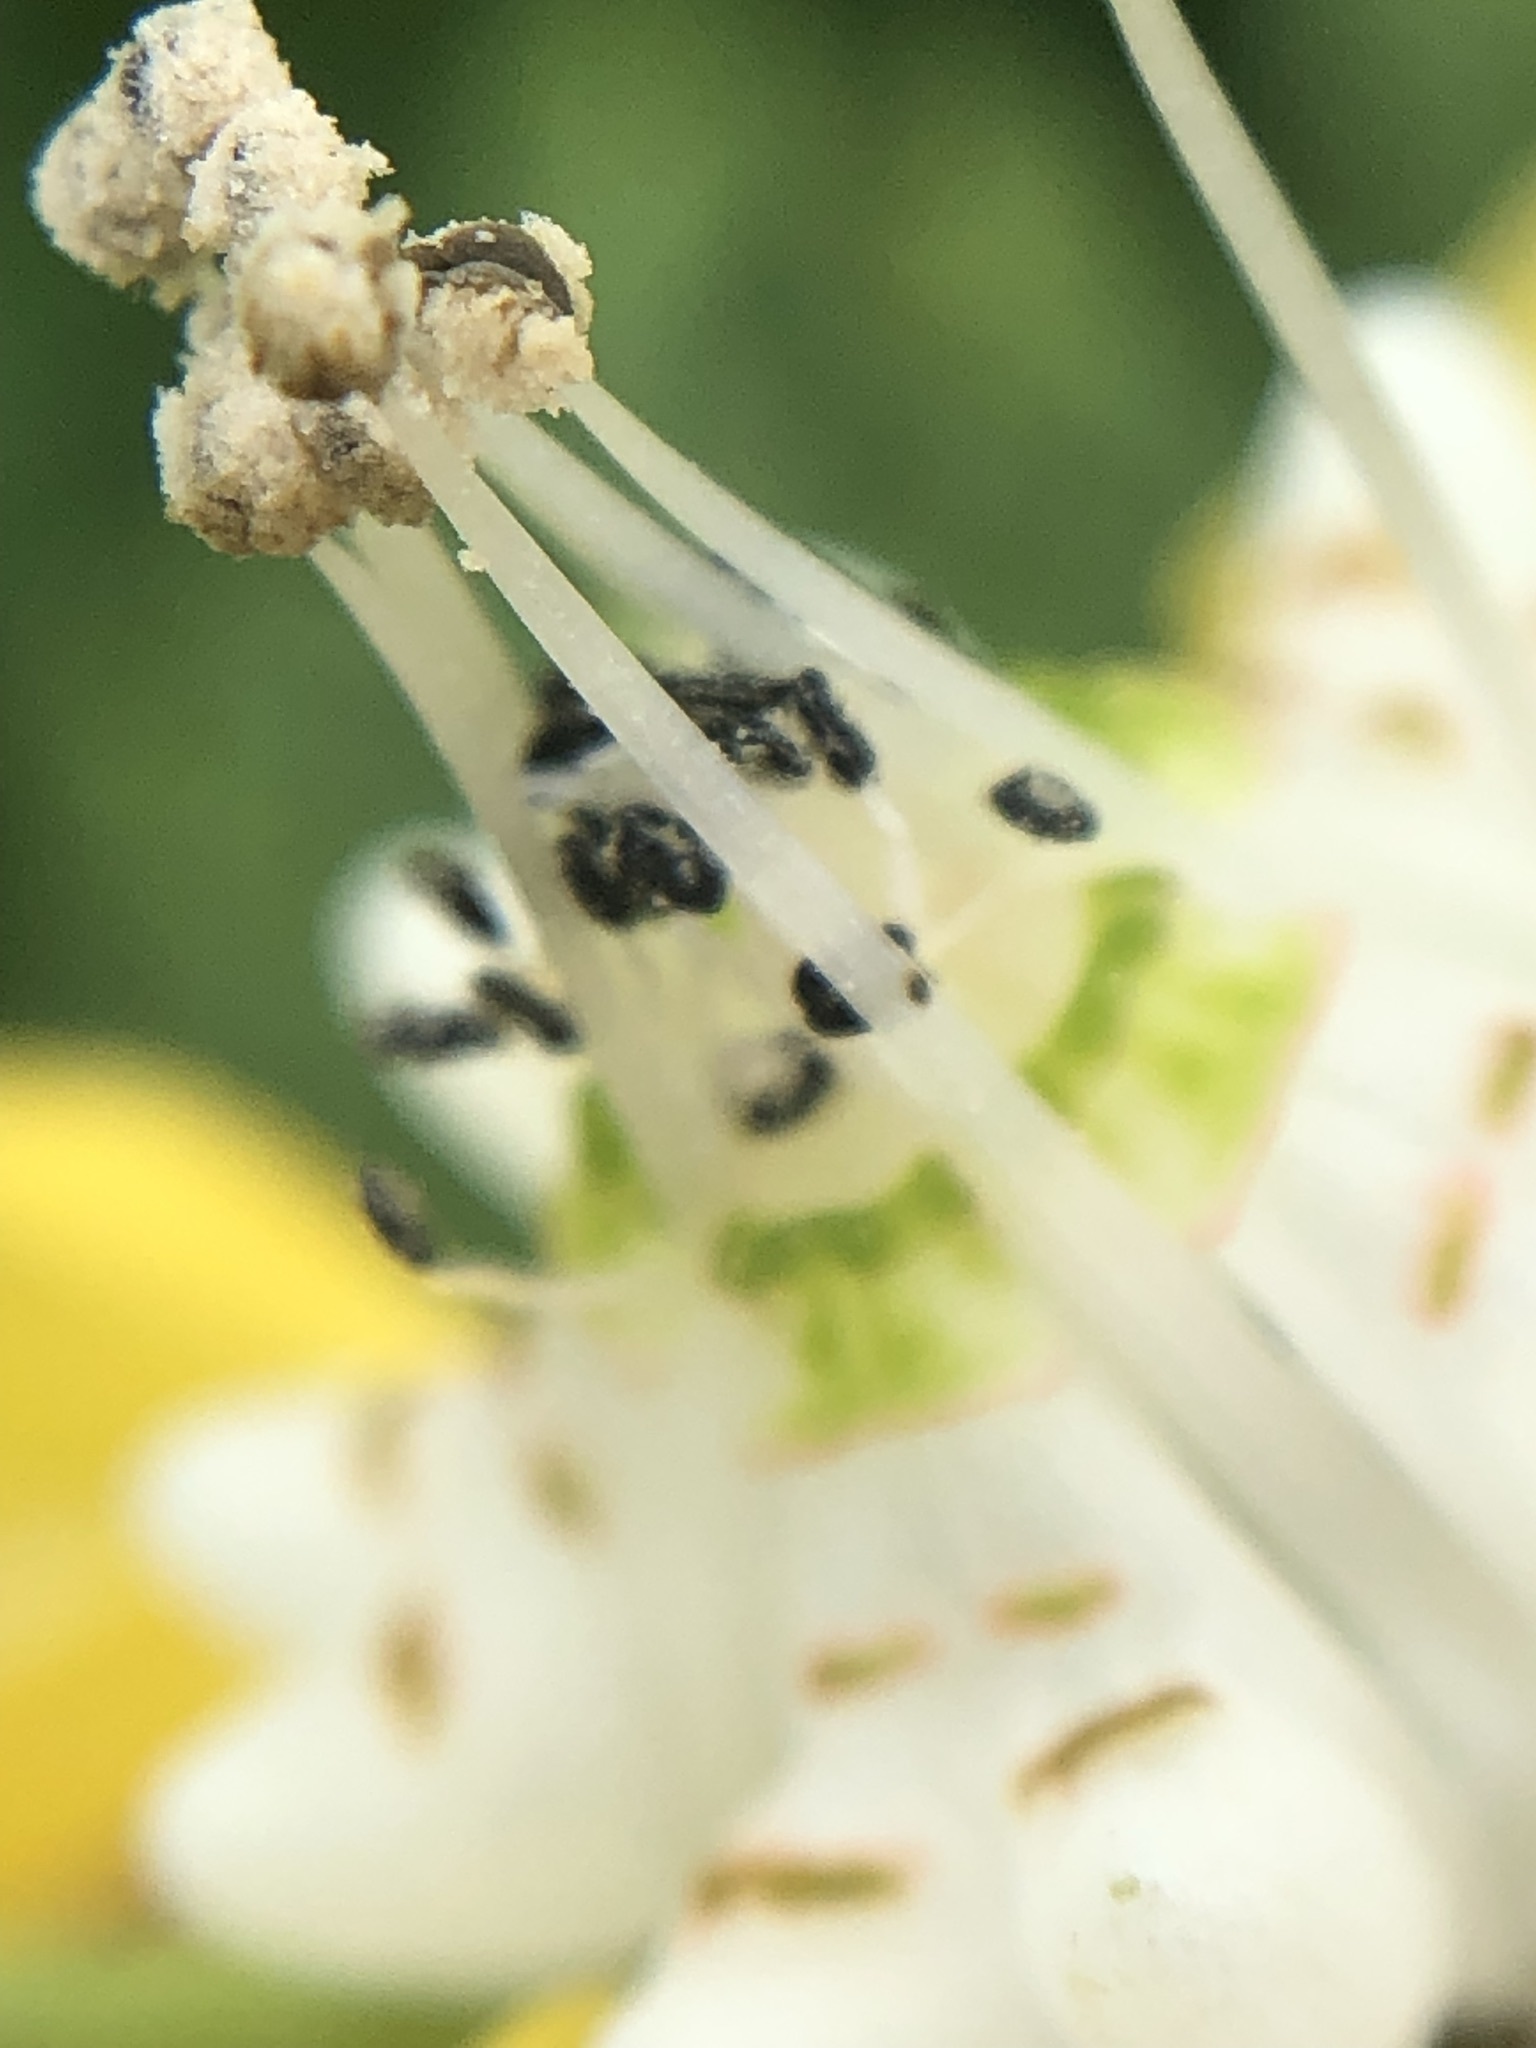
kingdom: Plantae
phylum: Tracheophyta
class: Magnoliopsida
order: Cornales
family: Loasaceae
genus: Nasa
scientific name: Nasa urens
